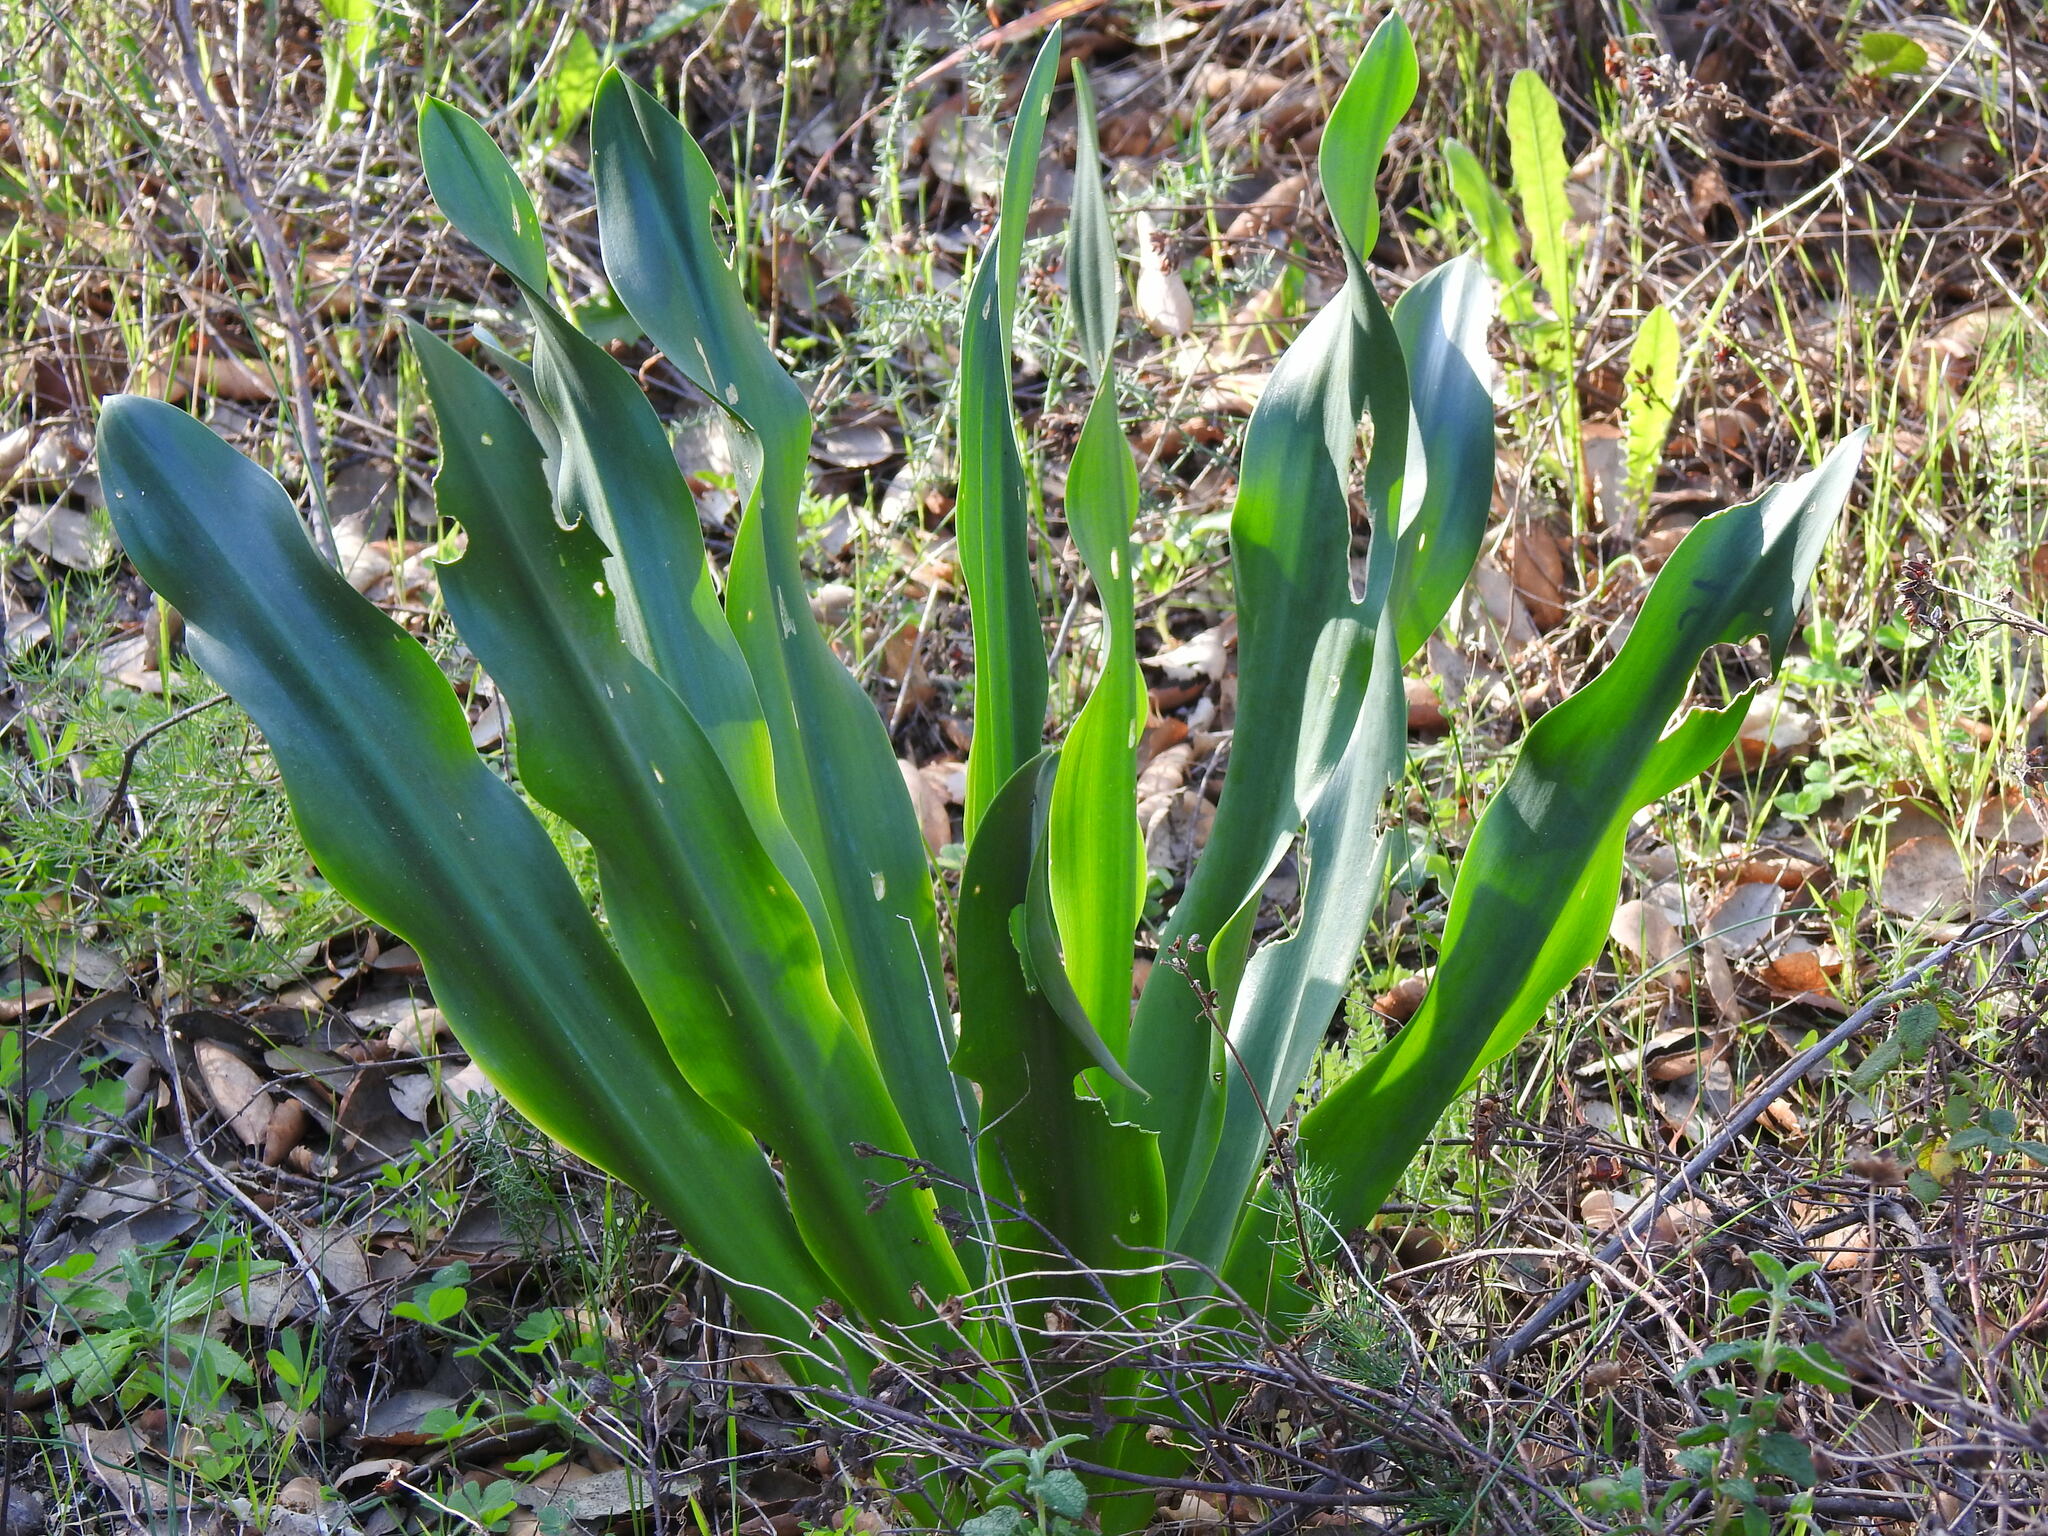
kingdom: Plantae
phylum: Tracheophyta
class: Liliopsida
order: Asparagales
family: Asparagaceae
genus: Drimia
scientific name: Drimia maritima
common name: Maritime squill
